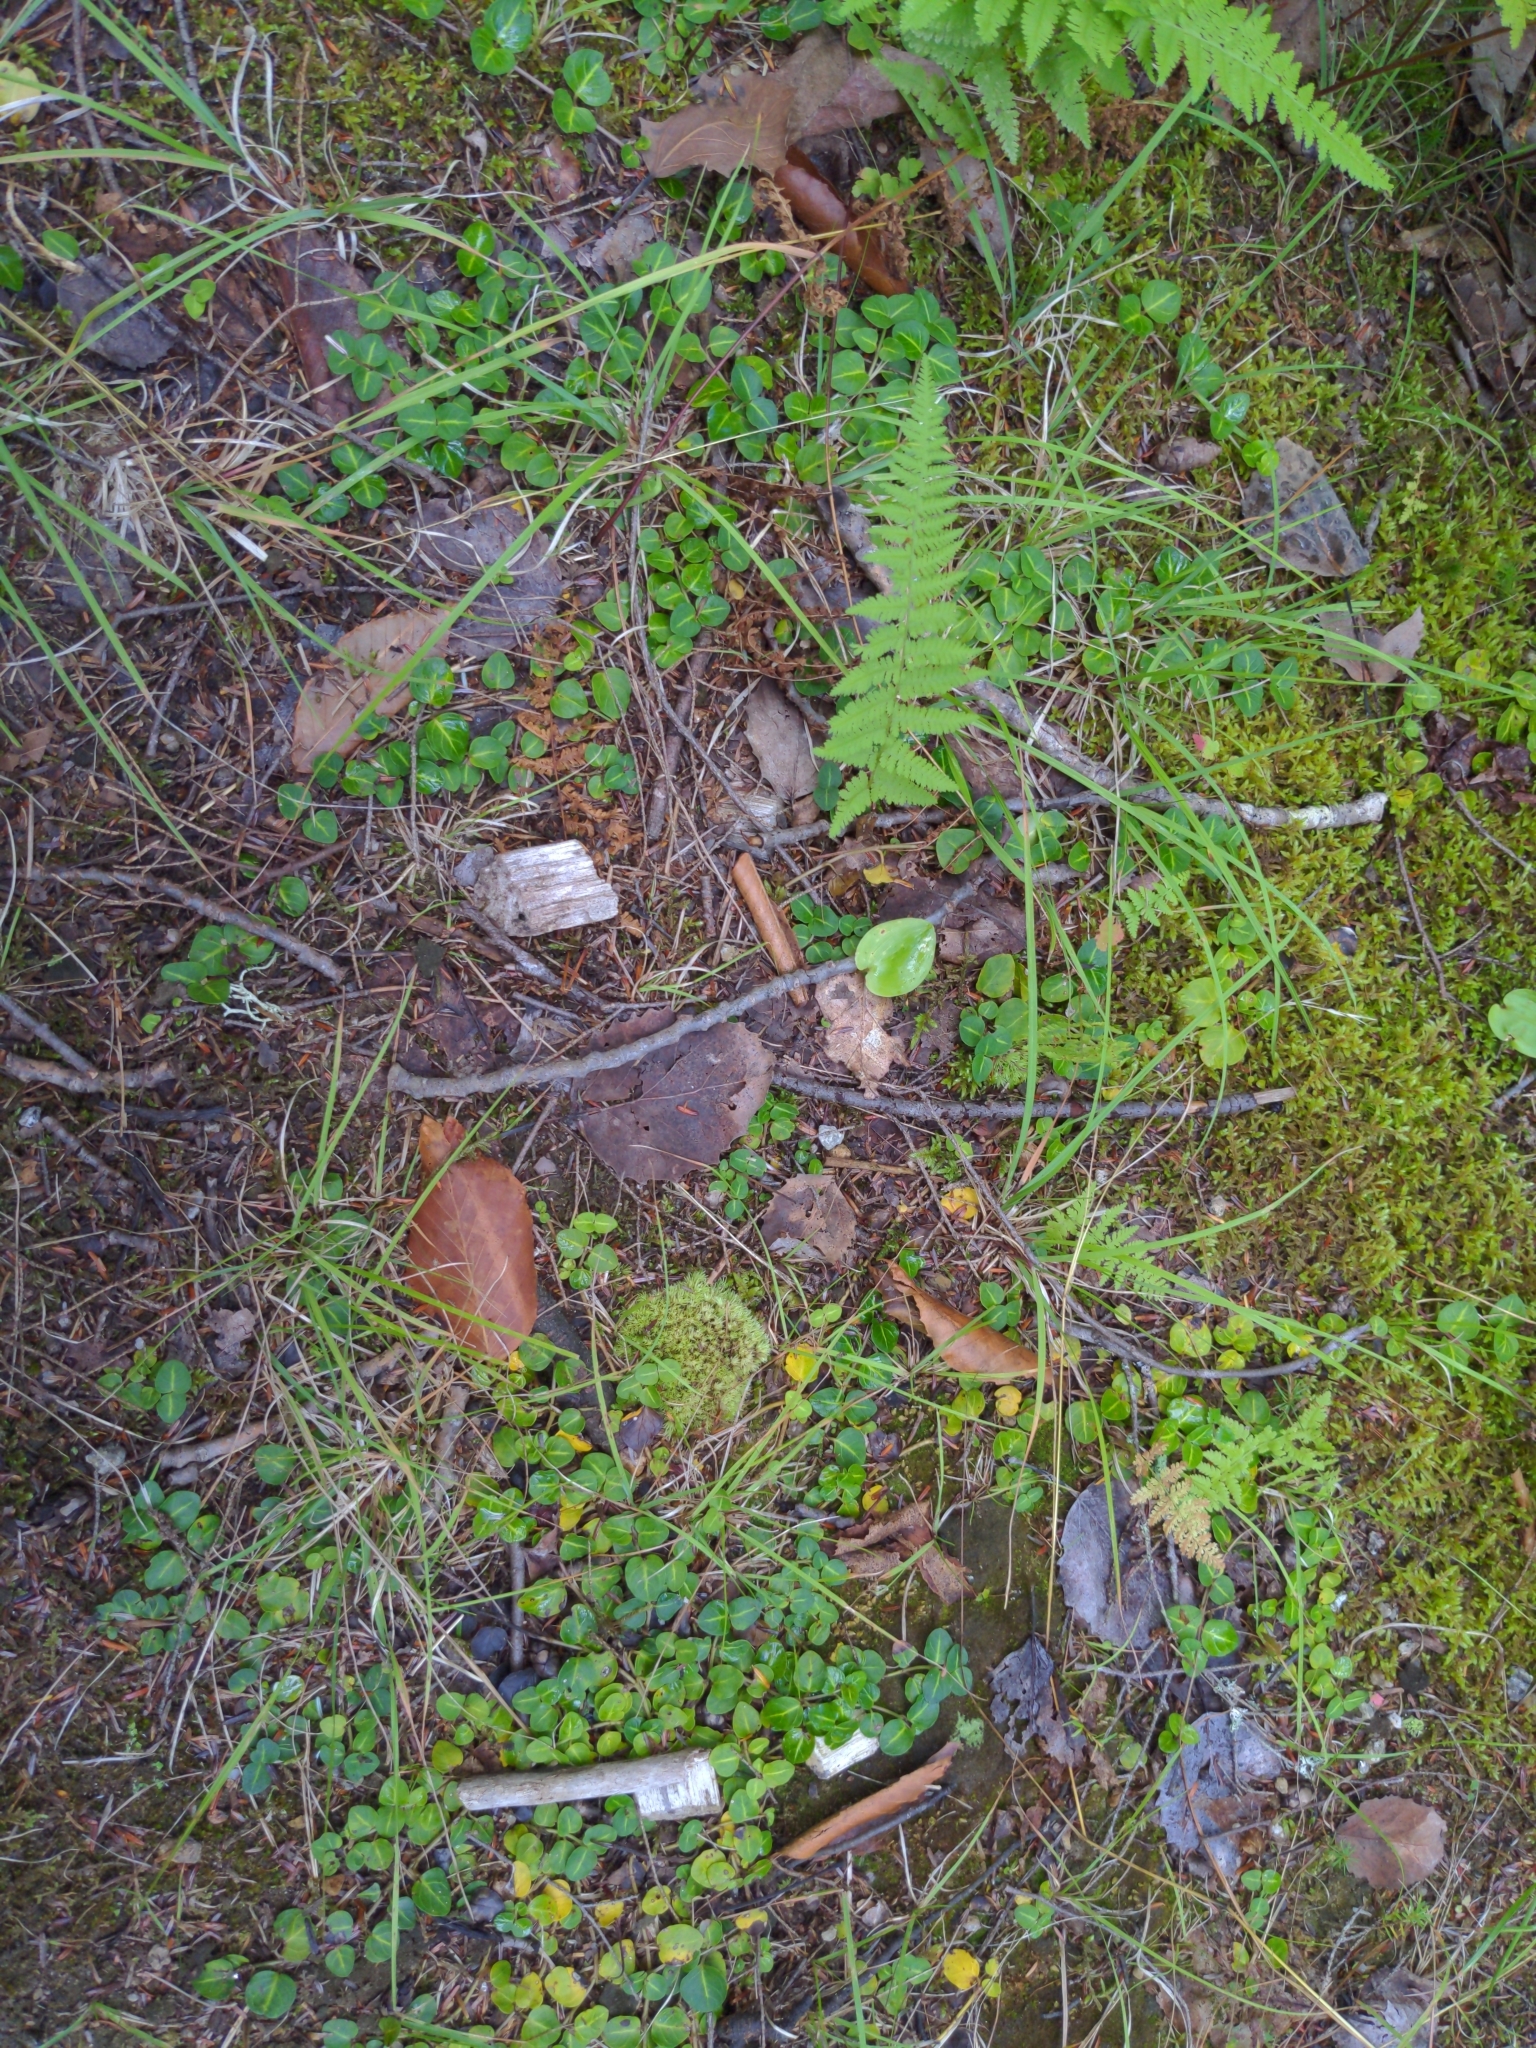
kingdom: Plantae
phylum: Tracheophyta
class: Magnoliopsida
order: Gentianales
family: Rubiaceae
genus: Mitchella
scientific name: Mitchella repens
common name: Partridge-berry
